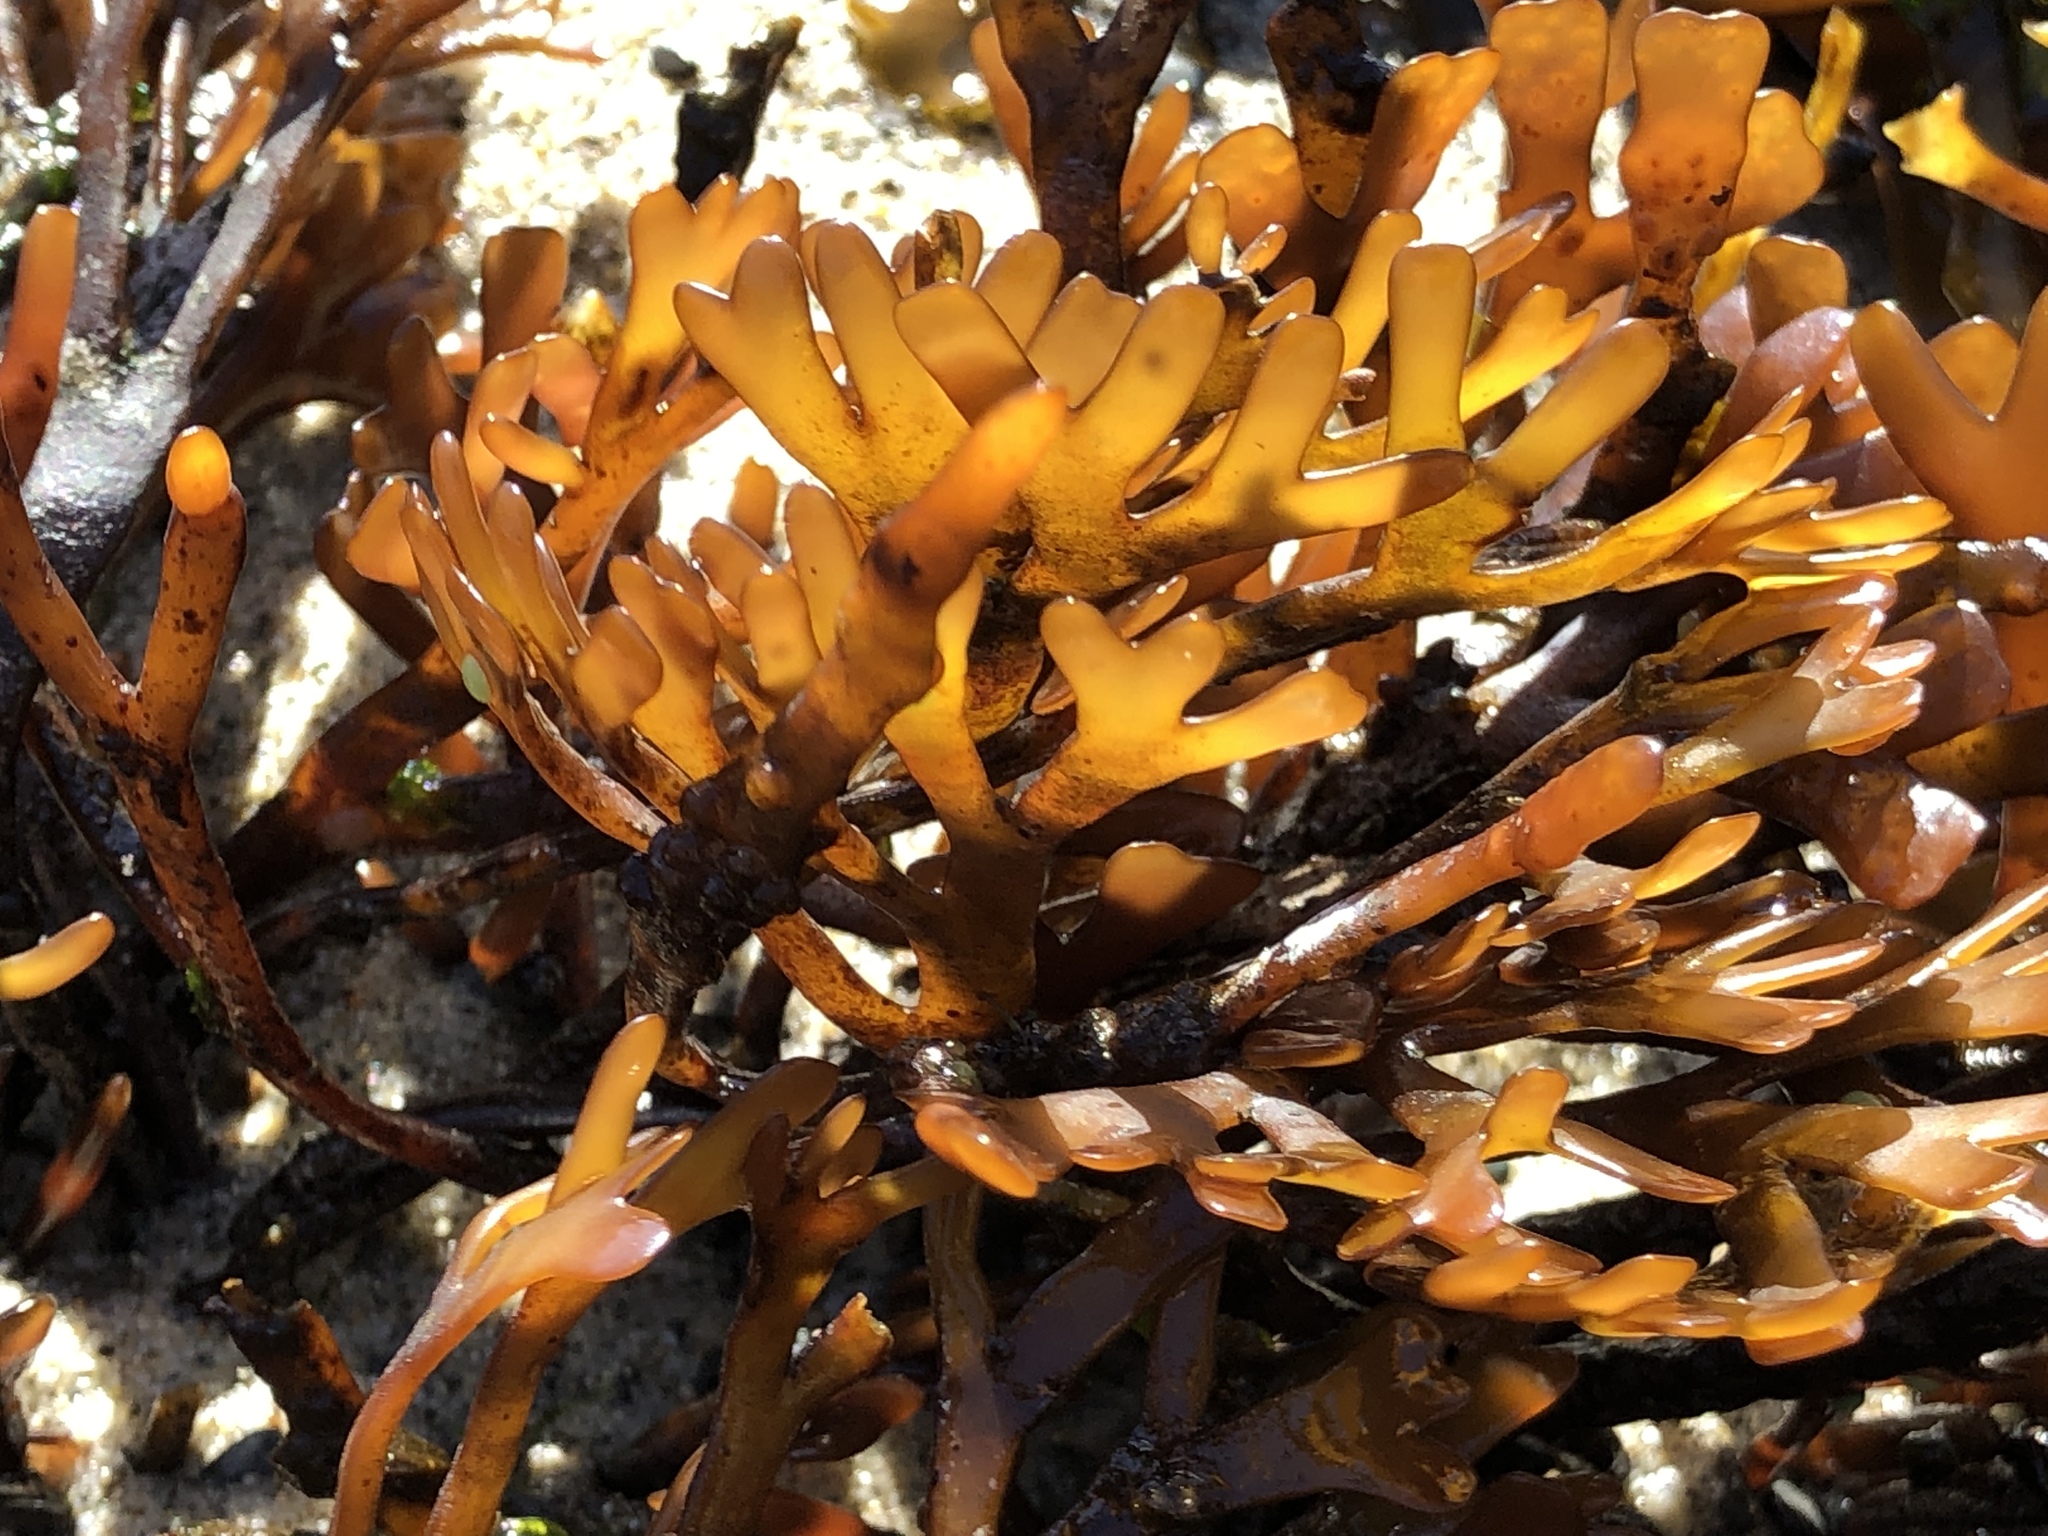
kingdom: Plantae
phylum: Rhodophyta
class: Florideophyceae
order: Gigartinales
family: Phyllophoraceae
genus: Ahnfeltiopsis
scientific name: Ahnfeltiopsis linearis
